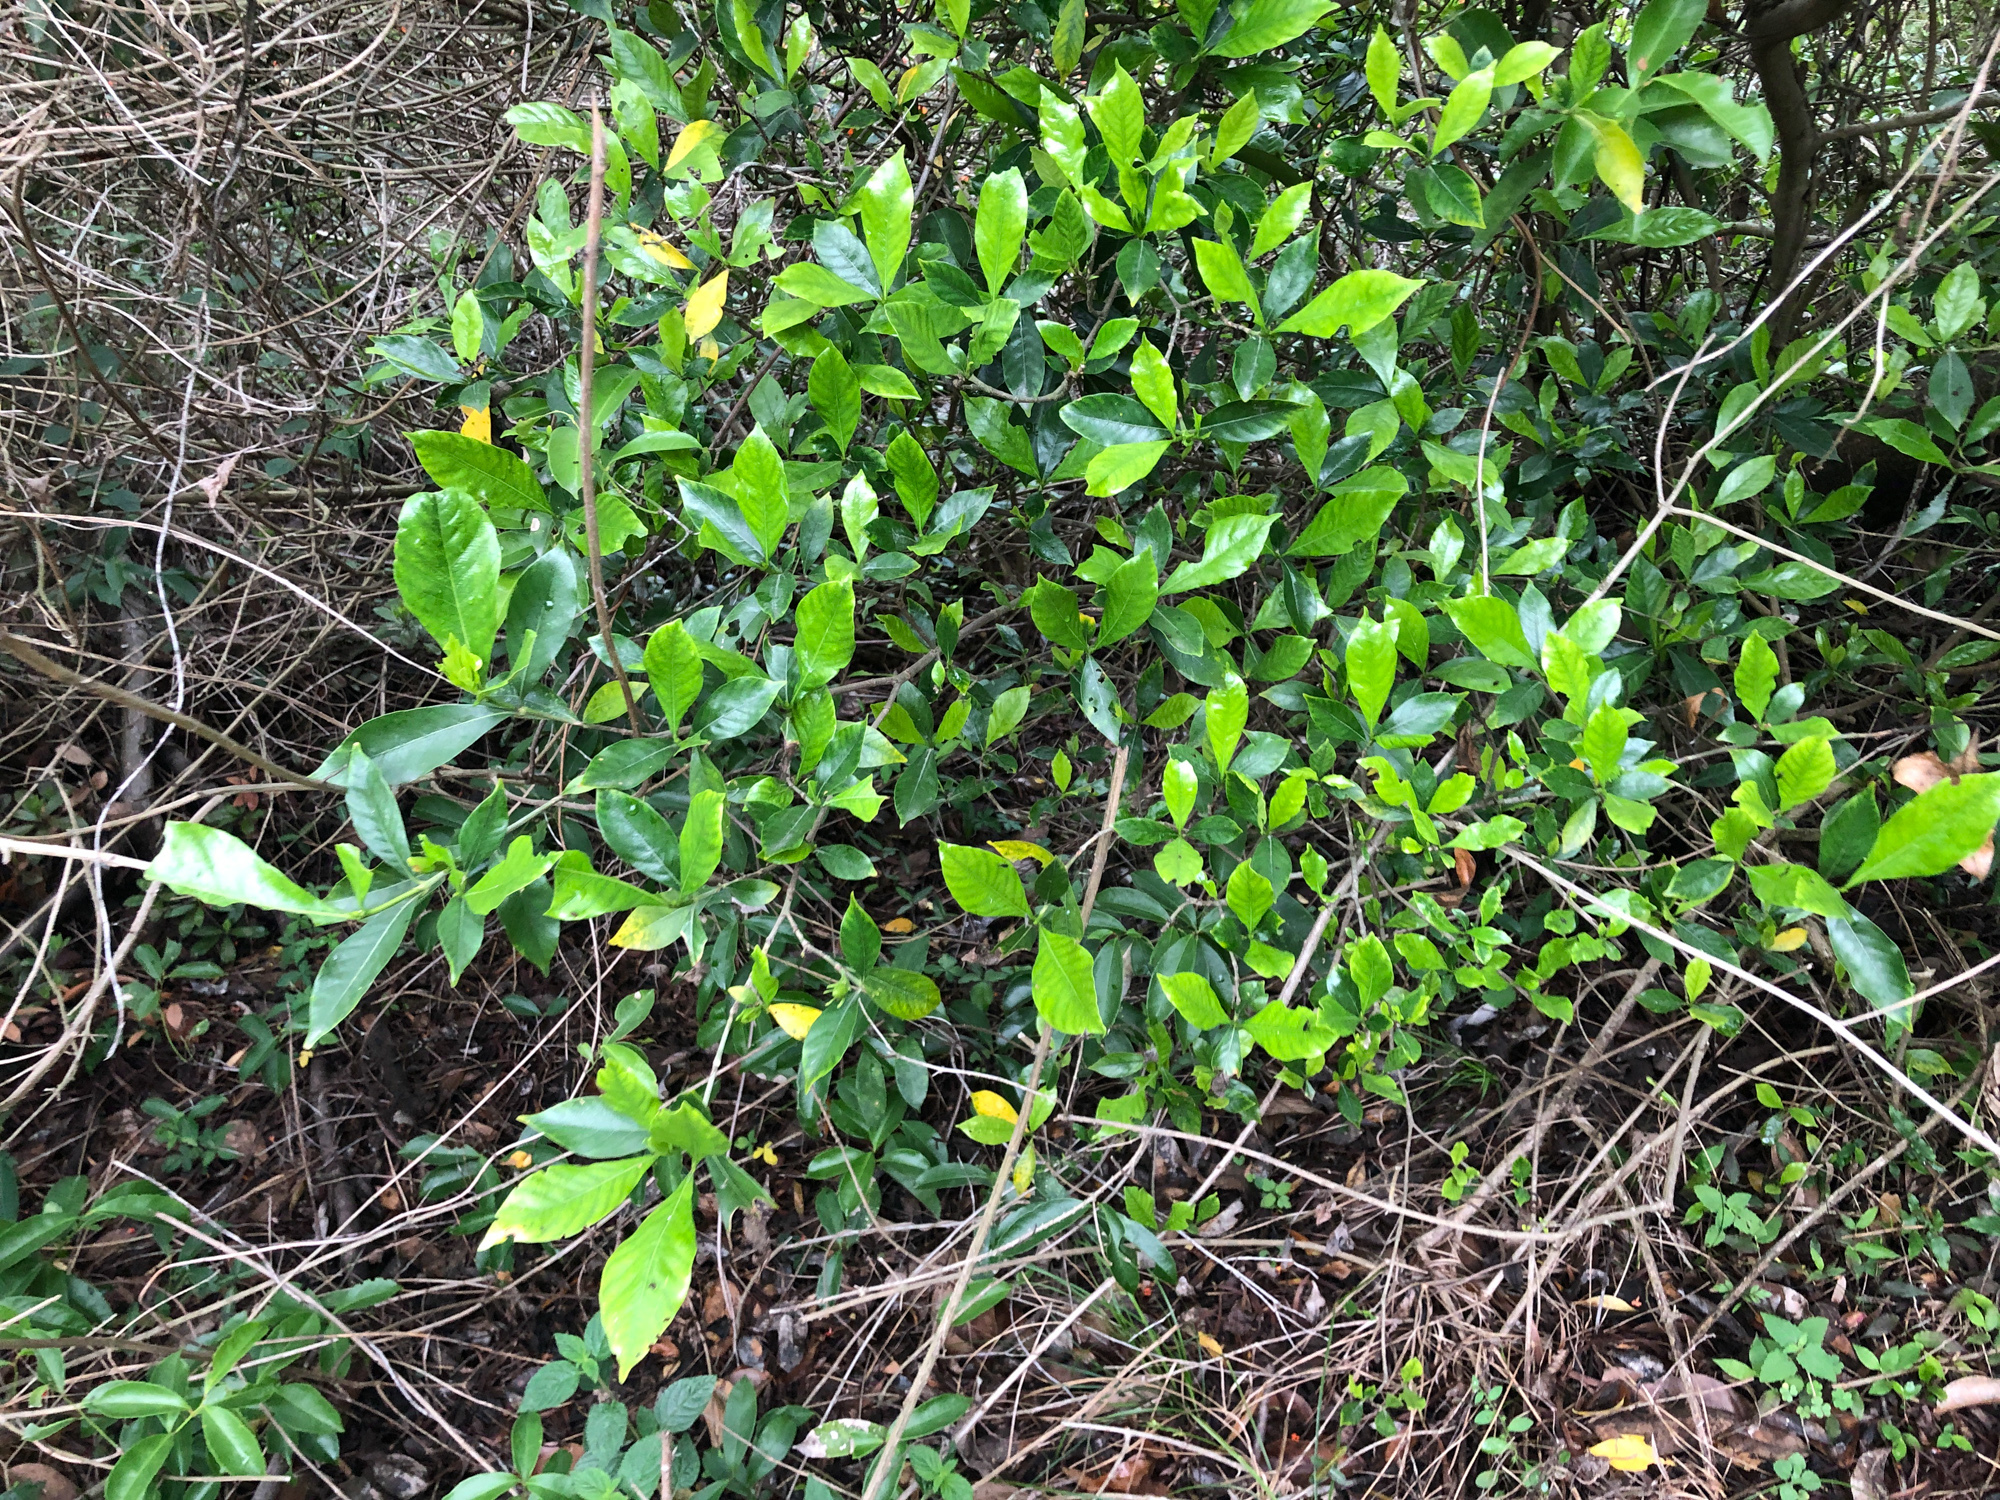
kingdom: Plantae
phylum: Tracheophyta
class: Magnoliopsida
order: Gentianales
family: Rubiaceae
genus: Gardenia
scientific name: Gardenia jasminoides
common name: Cape-jasmine
